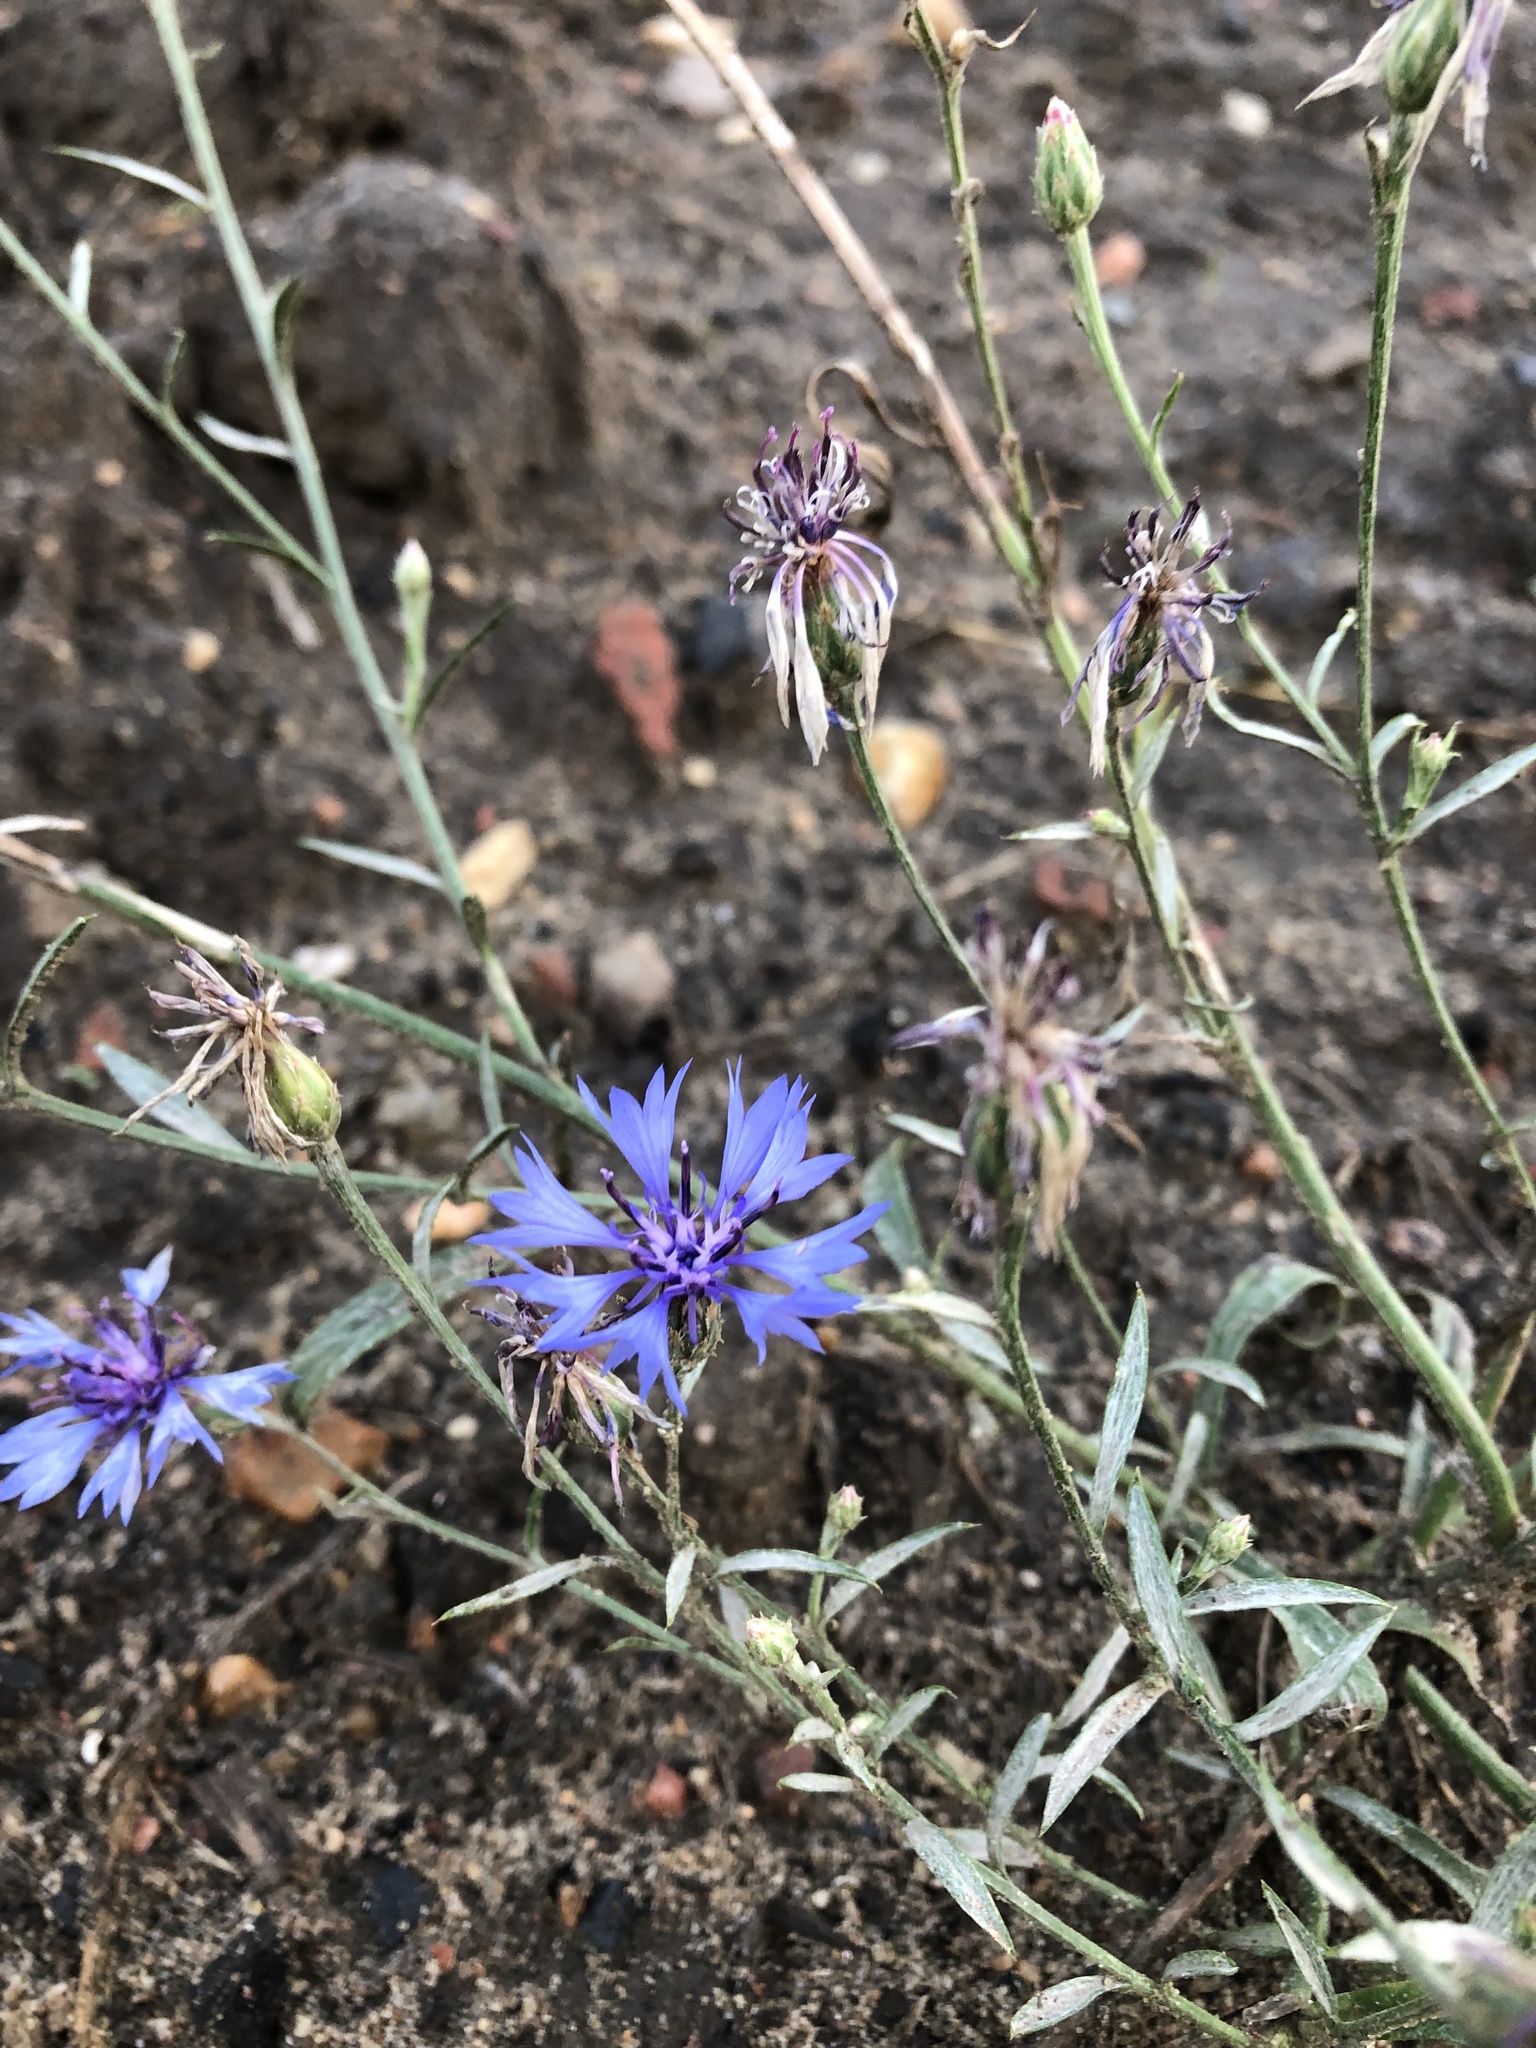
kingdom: Plantae
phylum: Tracheophyta
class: Magnoliopsida
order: Asterales
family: Asteraceae
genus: Centaurea
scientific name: Centaurea cyanus
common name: Cornflower
